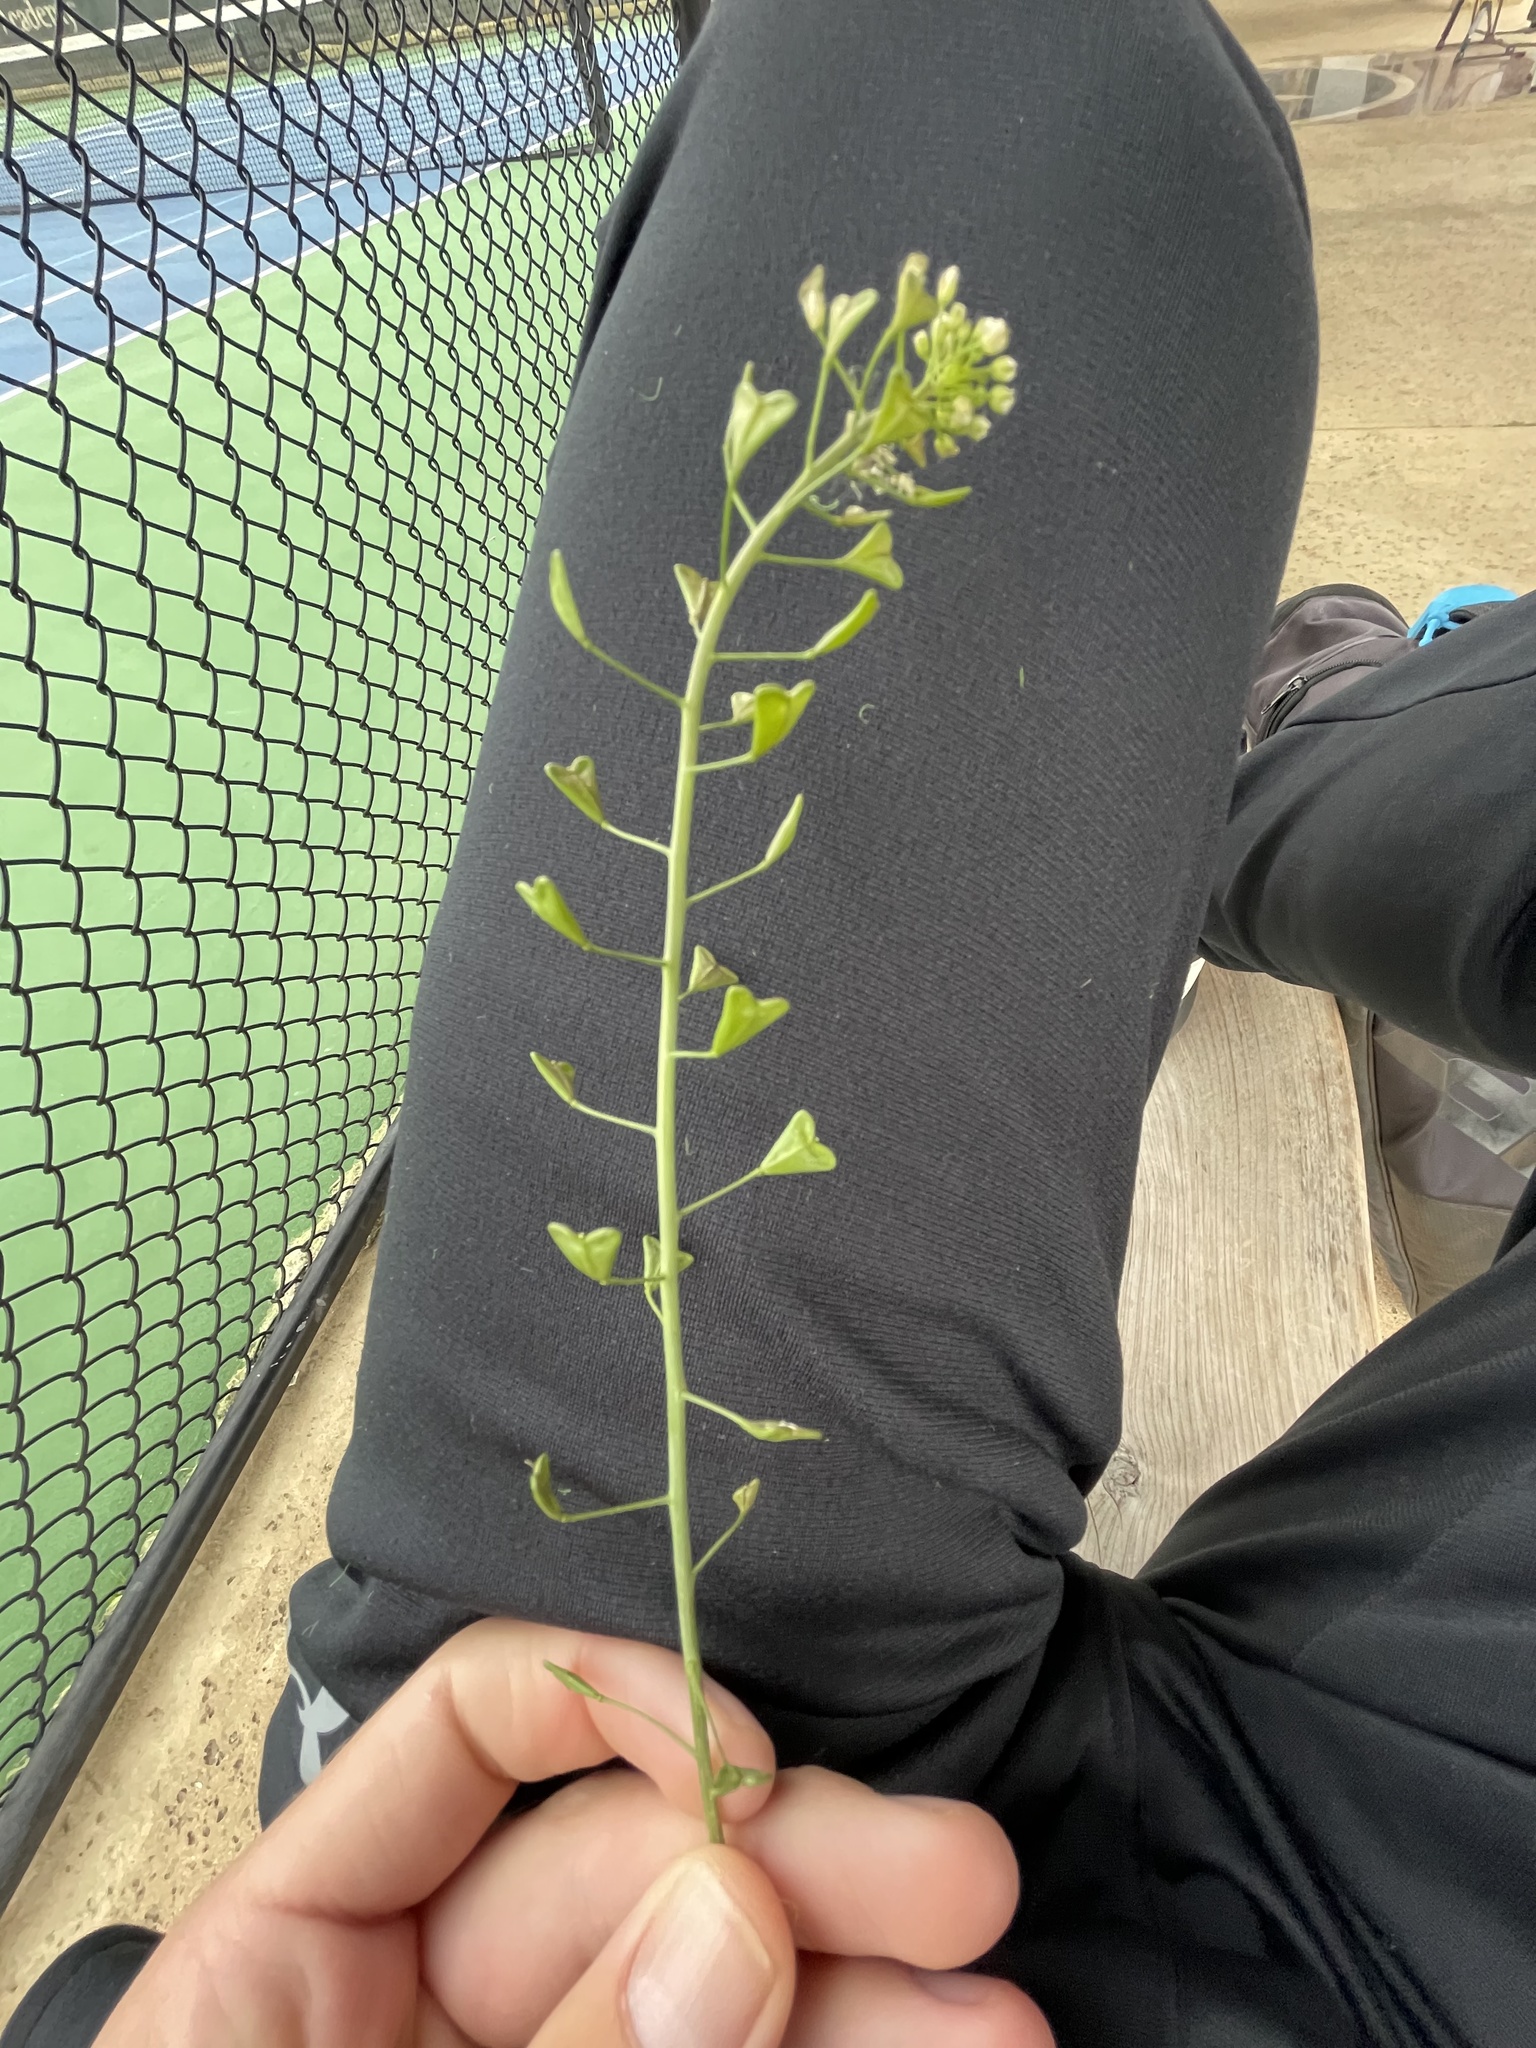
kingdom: Plantae
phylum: Tracheophyta
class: Magnoliopsida
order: Brassicales
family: Brassicaceae
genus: Capsella
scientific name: Capsella bursa-pastoris
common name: Shepherd's purse
